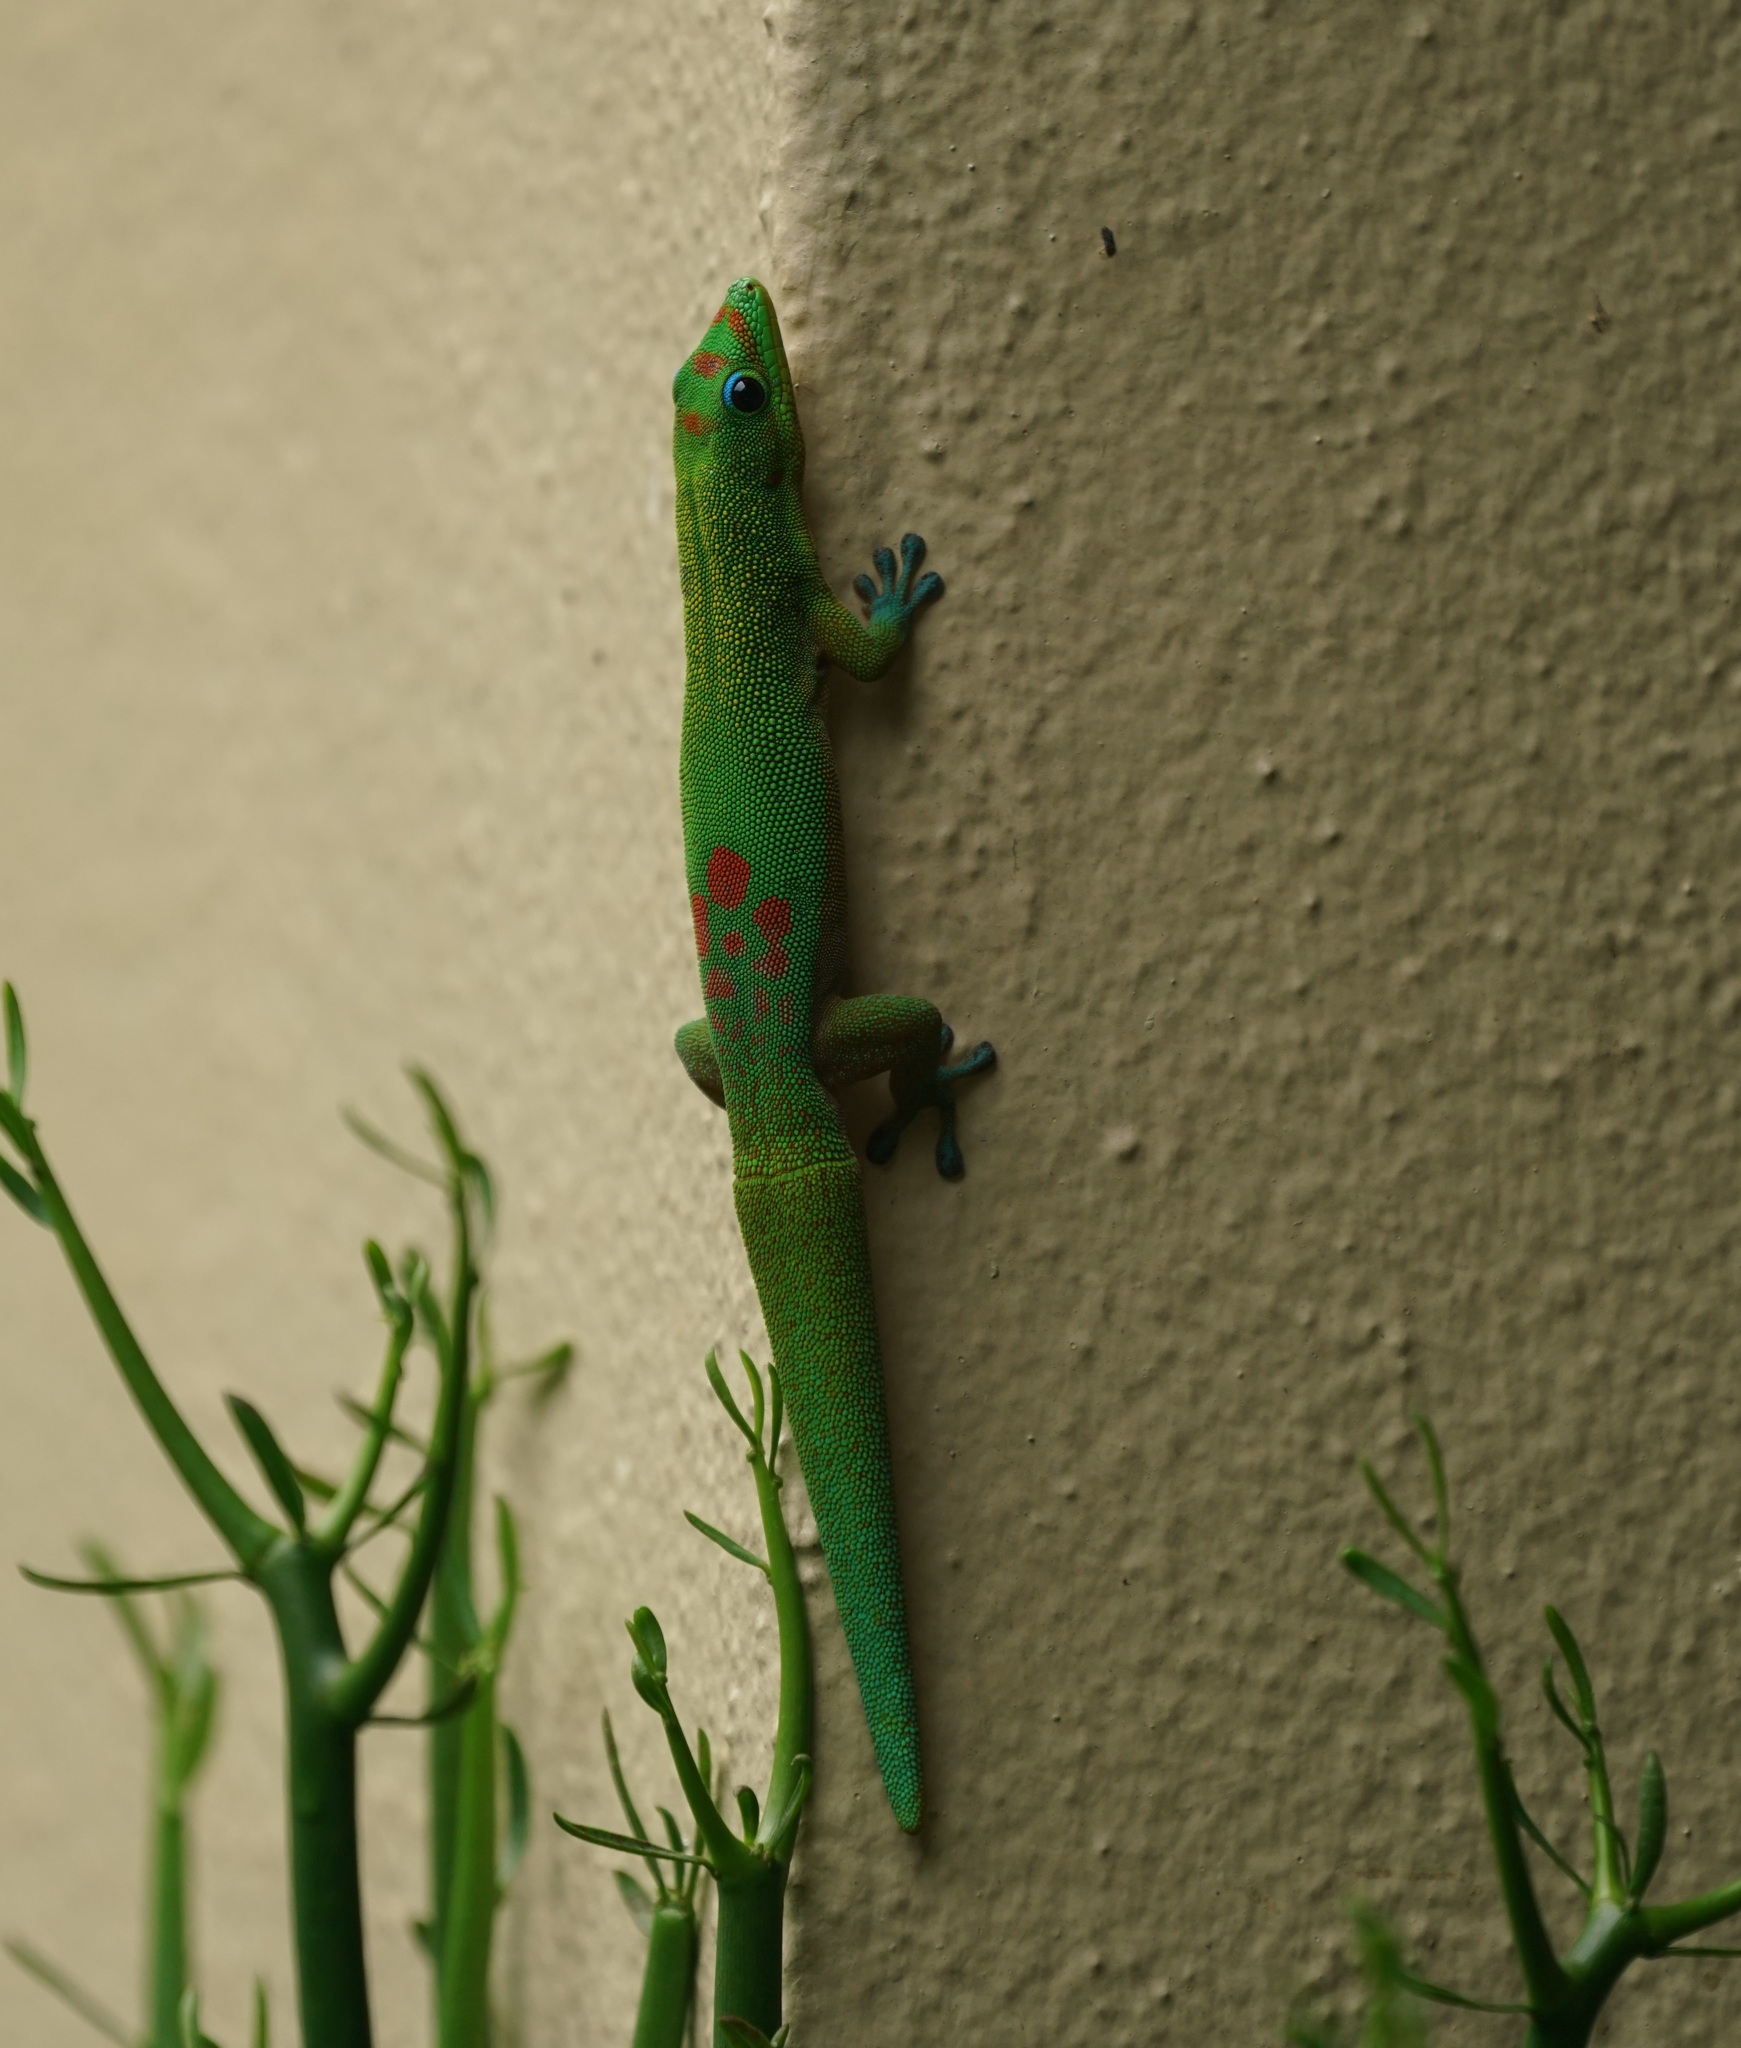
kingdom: Animalia
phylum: Chordata
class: Squamata
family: Gekkonidae
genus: Phelsuma
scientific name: Phelsuma laticauda
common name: Gold dust day gecko
